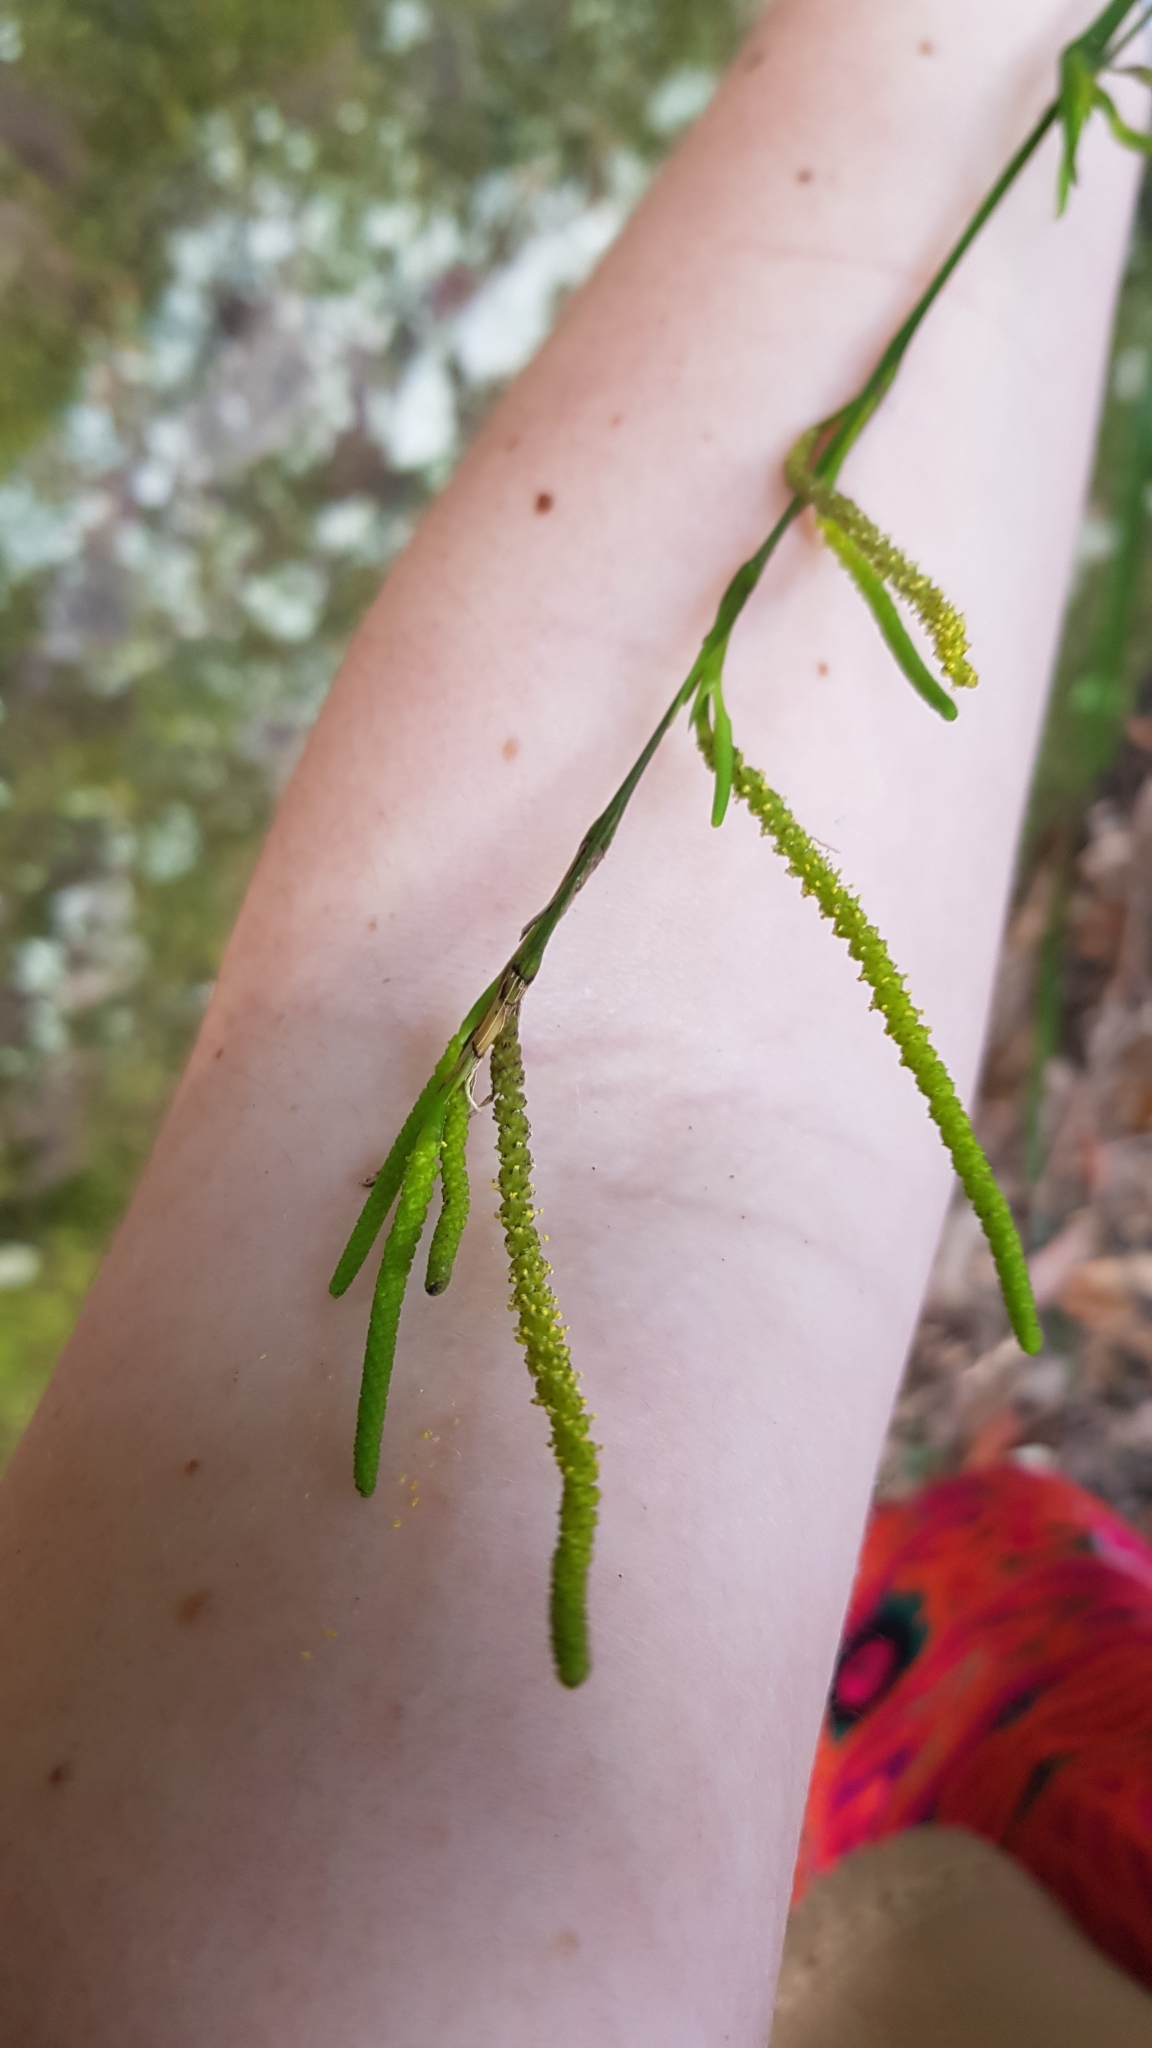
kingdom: Plantae
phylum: Tracheophyta
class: Liliopsida
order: Alismatales
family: Araceae
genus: Gymnostachys
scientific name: Gymnostachys anceps
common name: Settler's-flax
